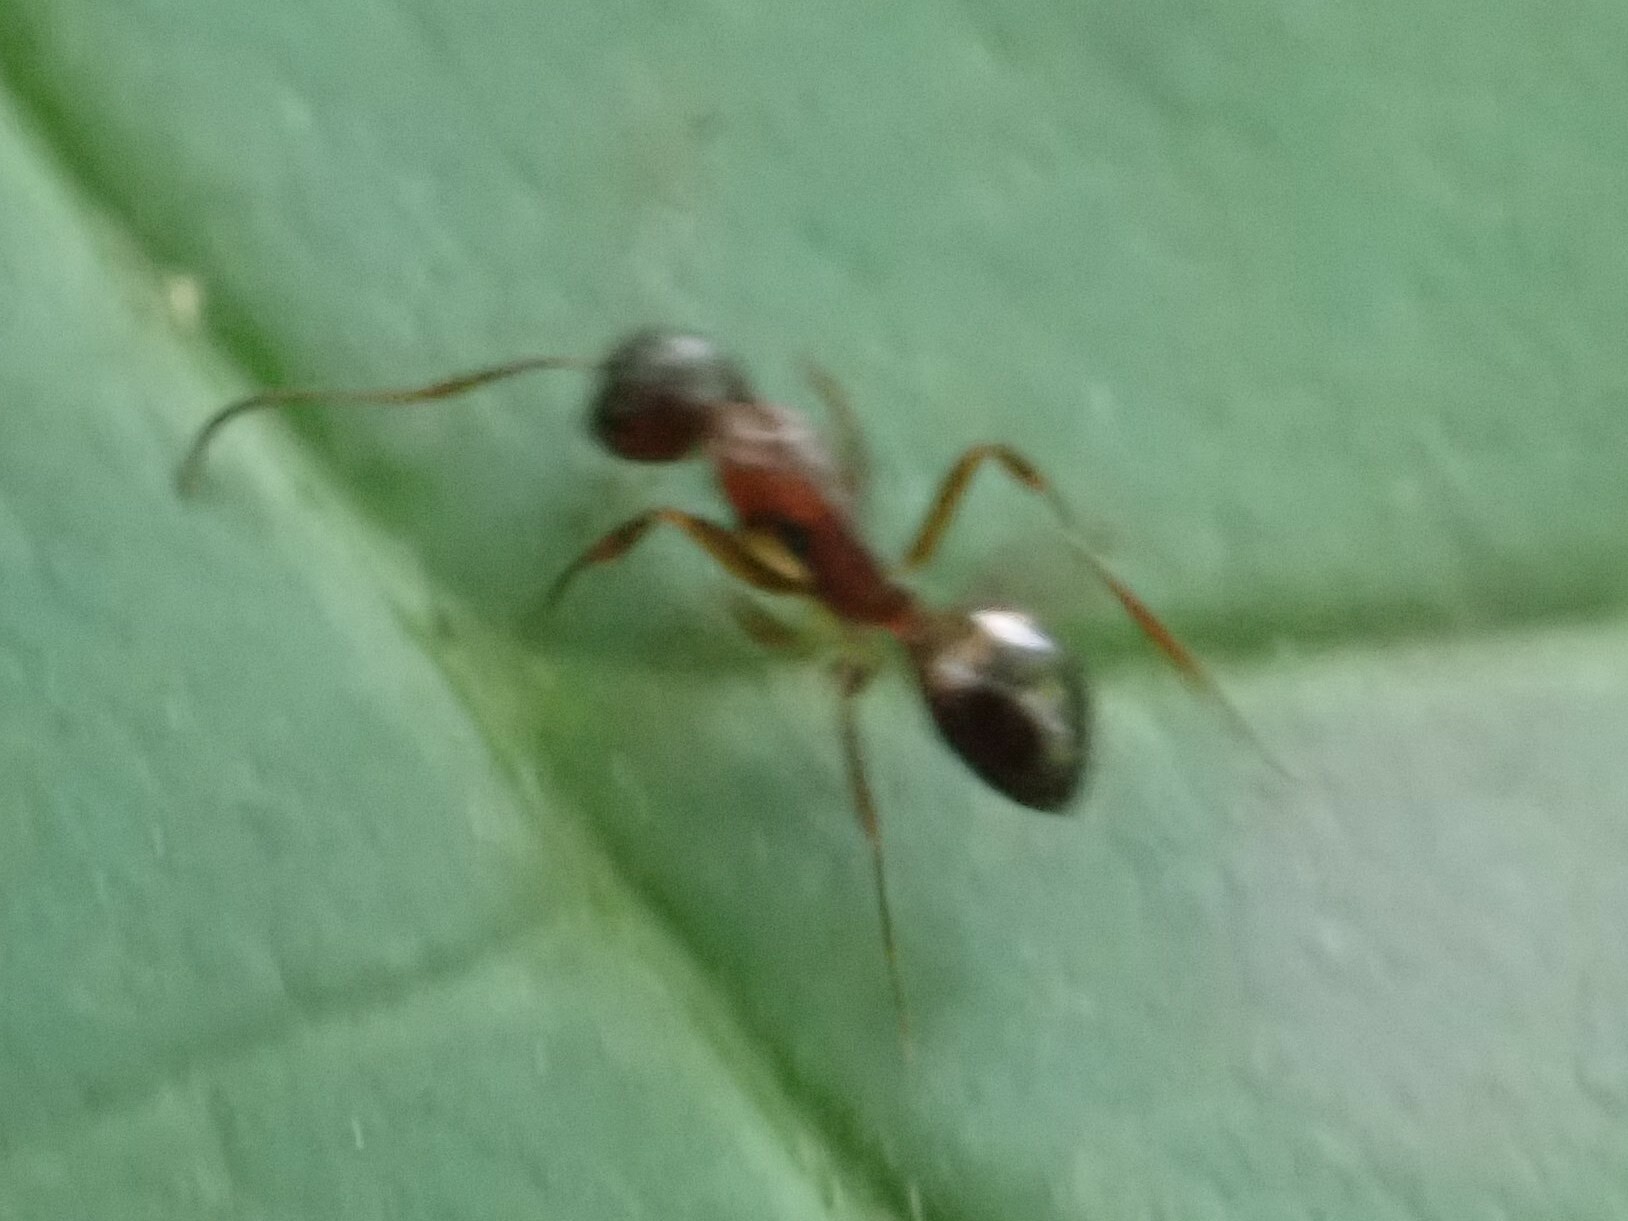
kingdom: Animalia
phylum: Arthropoda
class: Insecta
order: Hymenoptera
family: Formicidae
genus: Camponotus
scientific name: Camponotus subbarbatus
